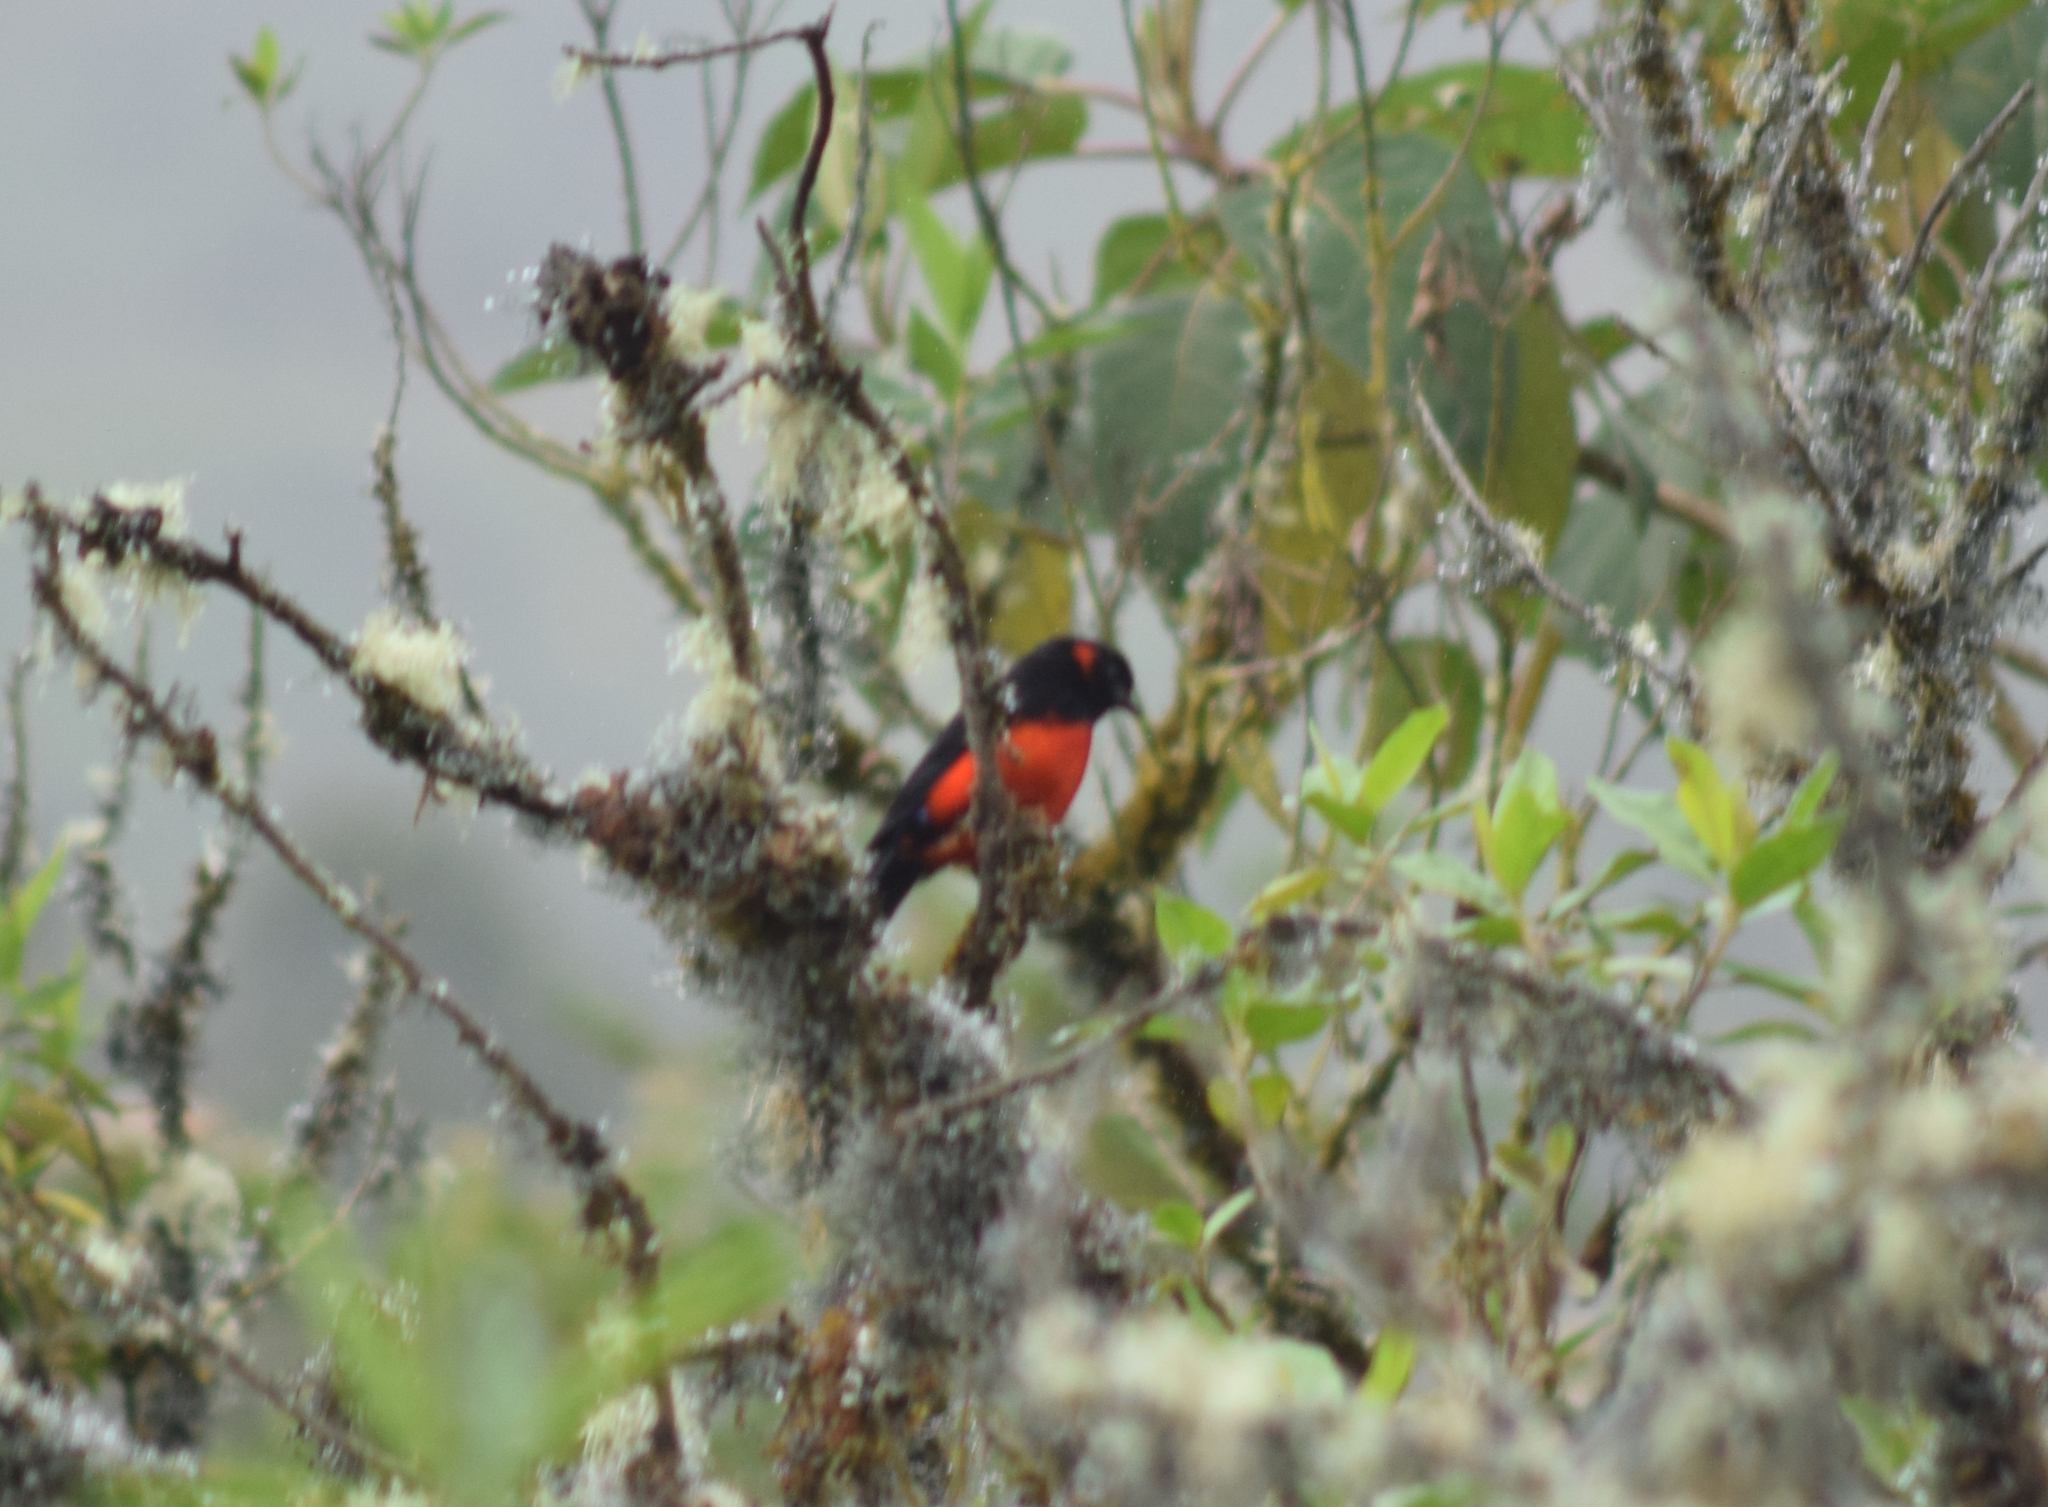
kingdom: Animalia
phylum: Chordata
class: Aves
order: Passeriformes
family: Thraupidae
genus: Anisognathus
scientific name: Anisognathus igniventris
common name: Scarlet-bellied mountain tanager
